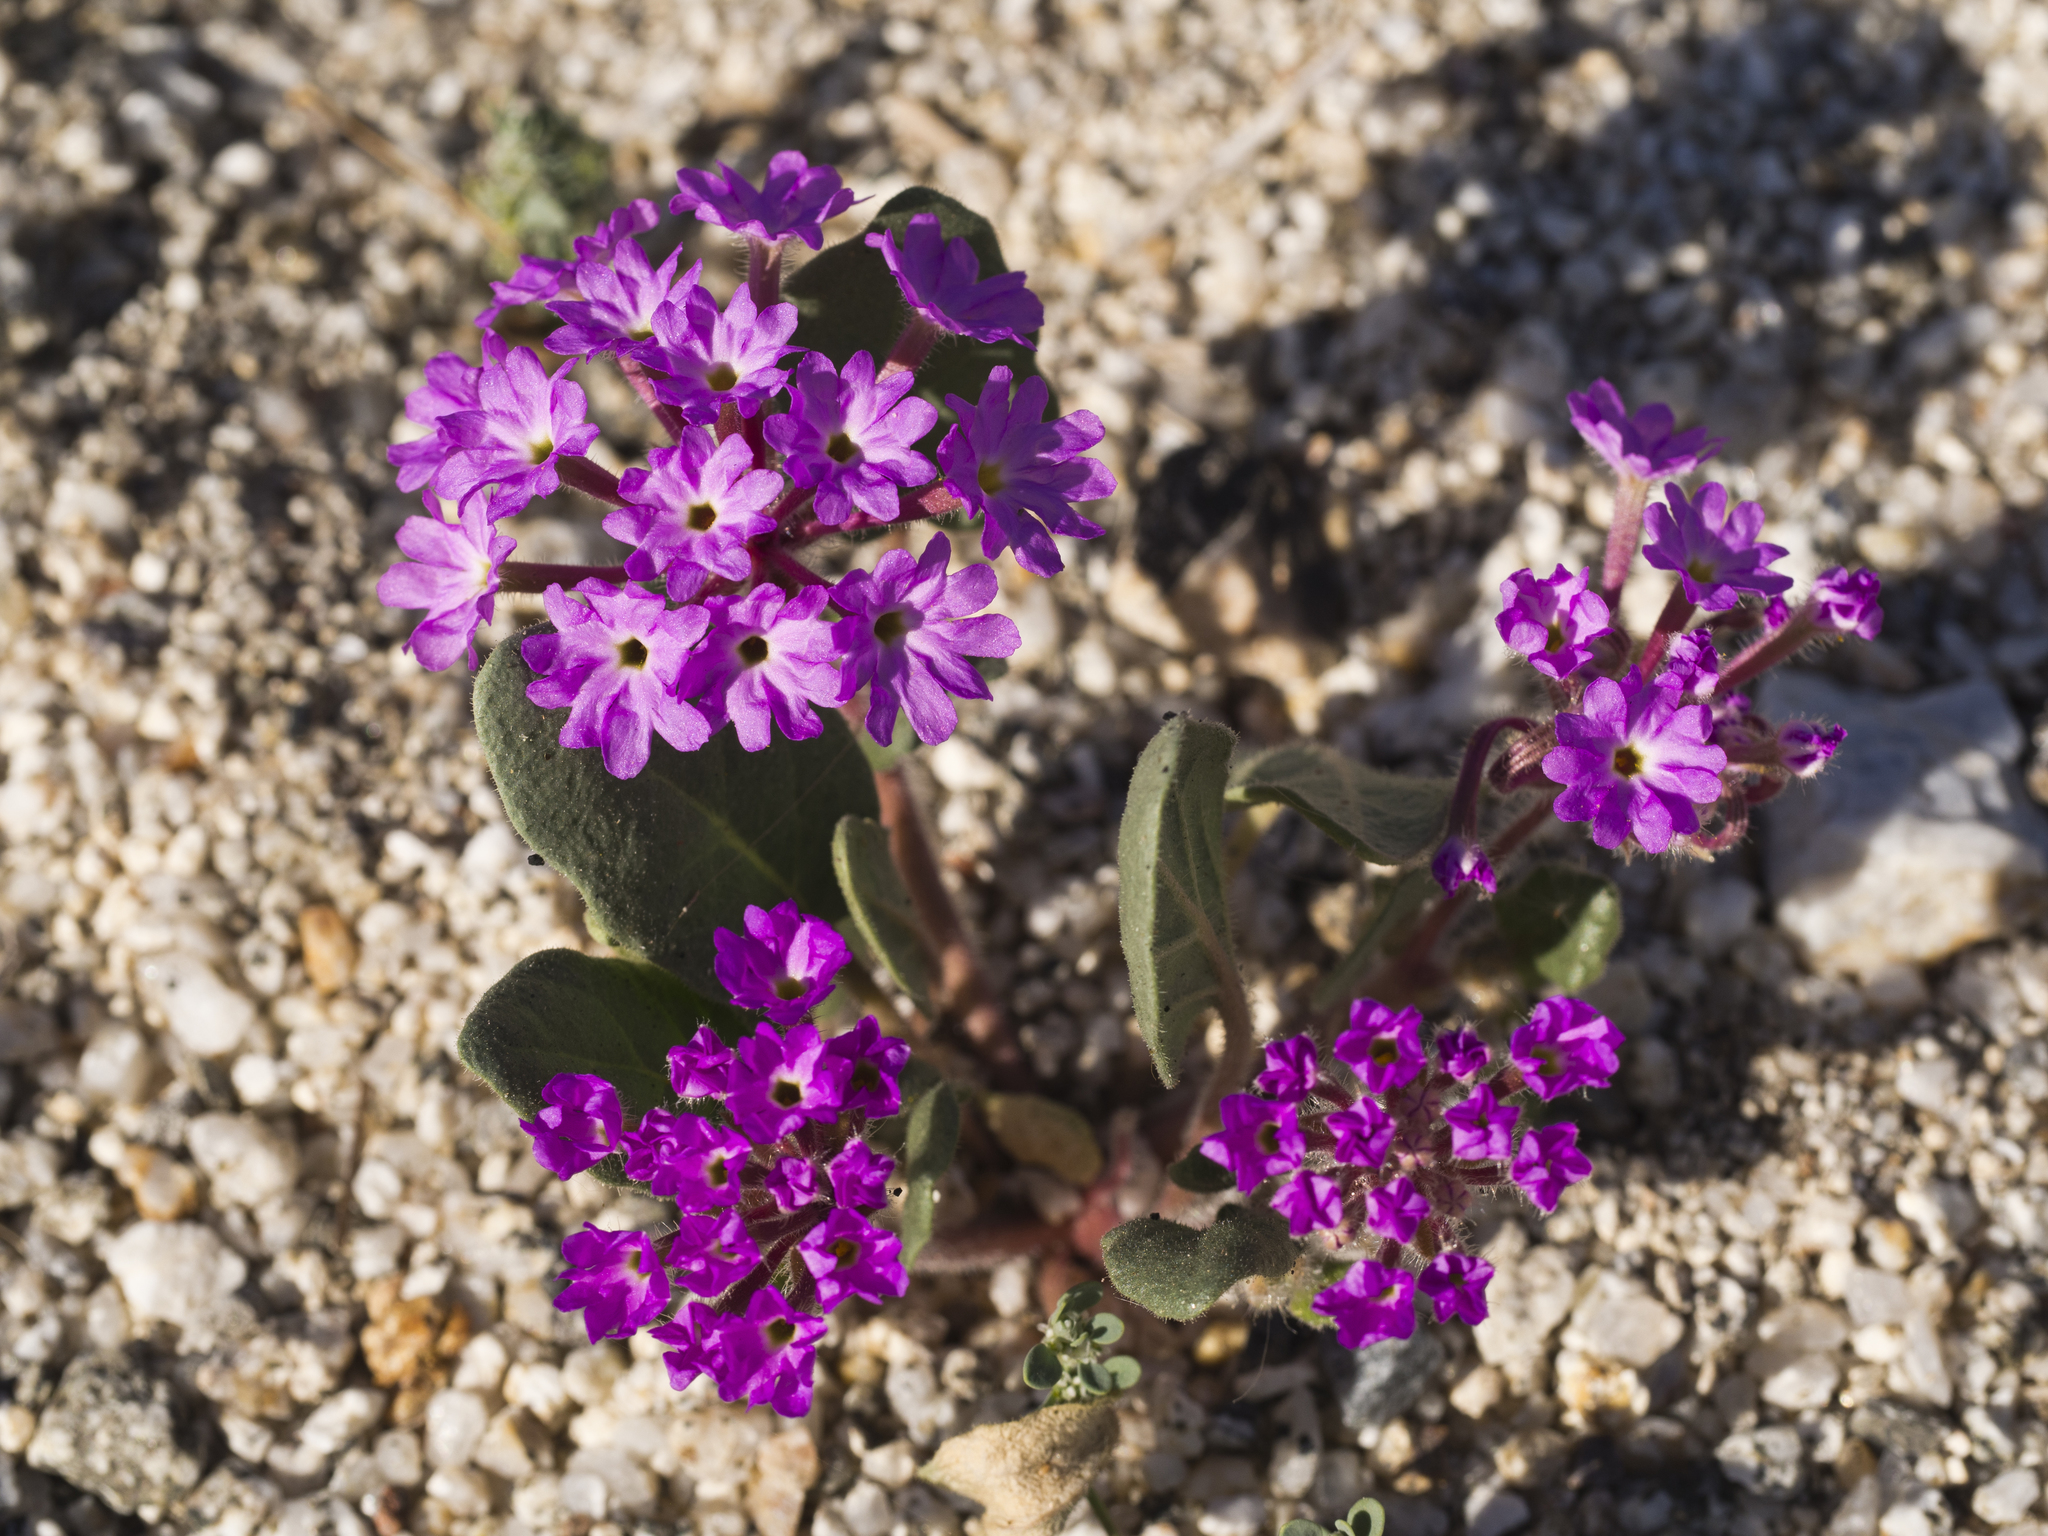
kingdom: Plantae
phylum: Tracheophyta
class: Magnoliopsida
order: Caryophyllales
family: Nyctaginaceae
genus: Abronia
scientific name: Abronia villosa
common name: Desert sand-verbena
